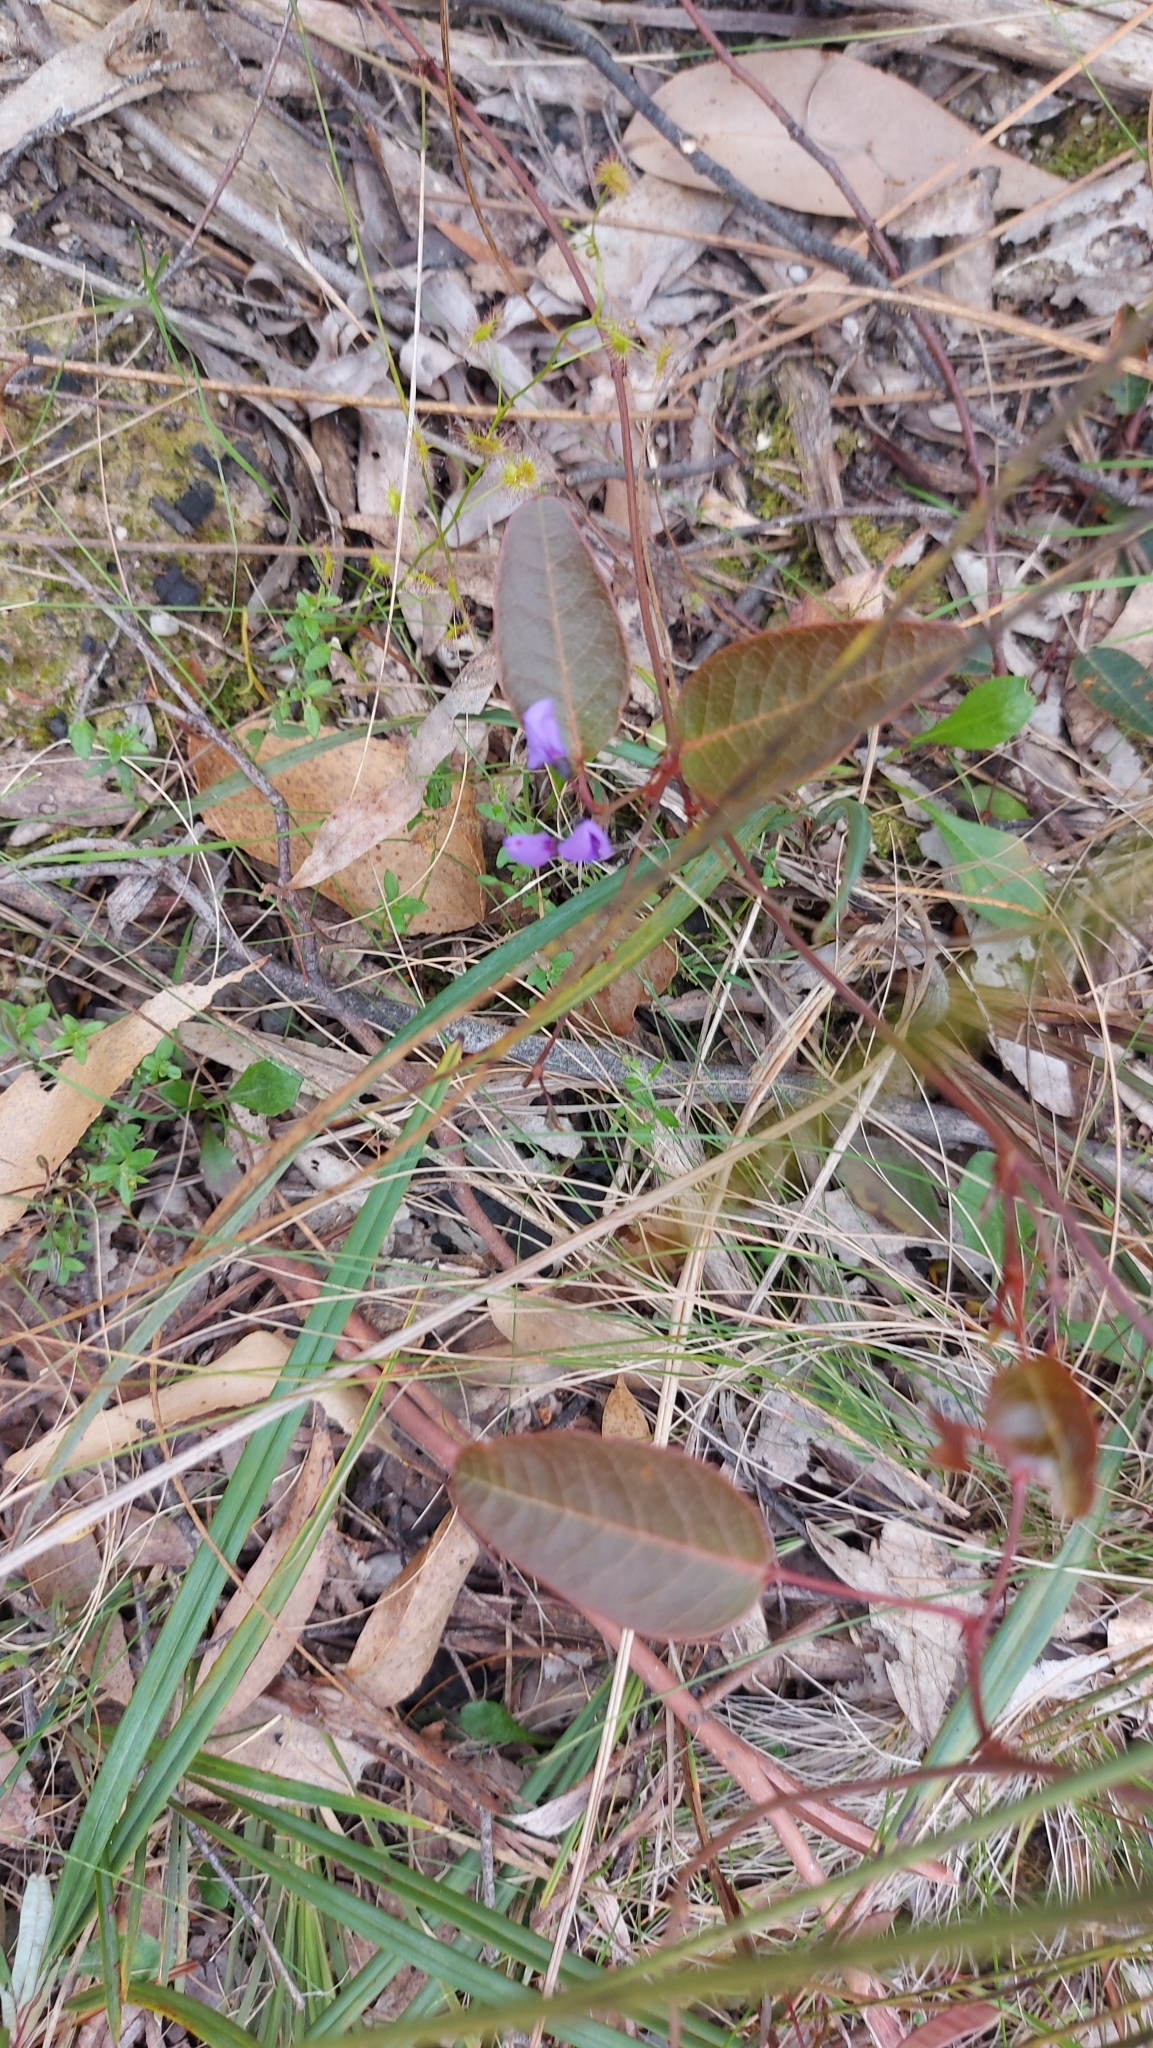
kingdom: Plantae
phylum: Tracheophyta
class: Magnoliopsida
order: Fabales
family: Fabaceae
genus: Hardenbergia
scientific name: Hardenbergia violacea
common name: Coral-pea
